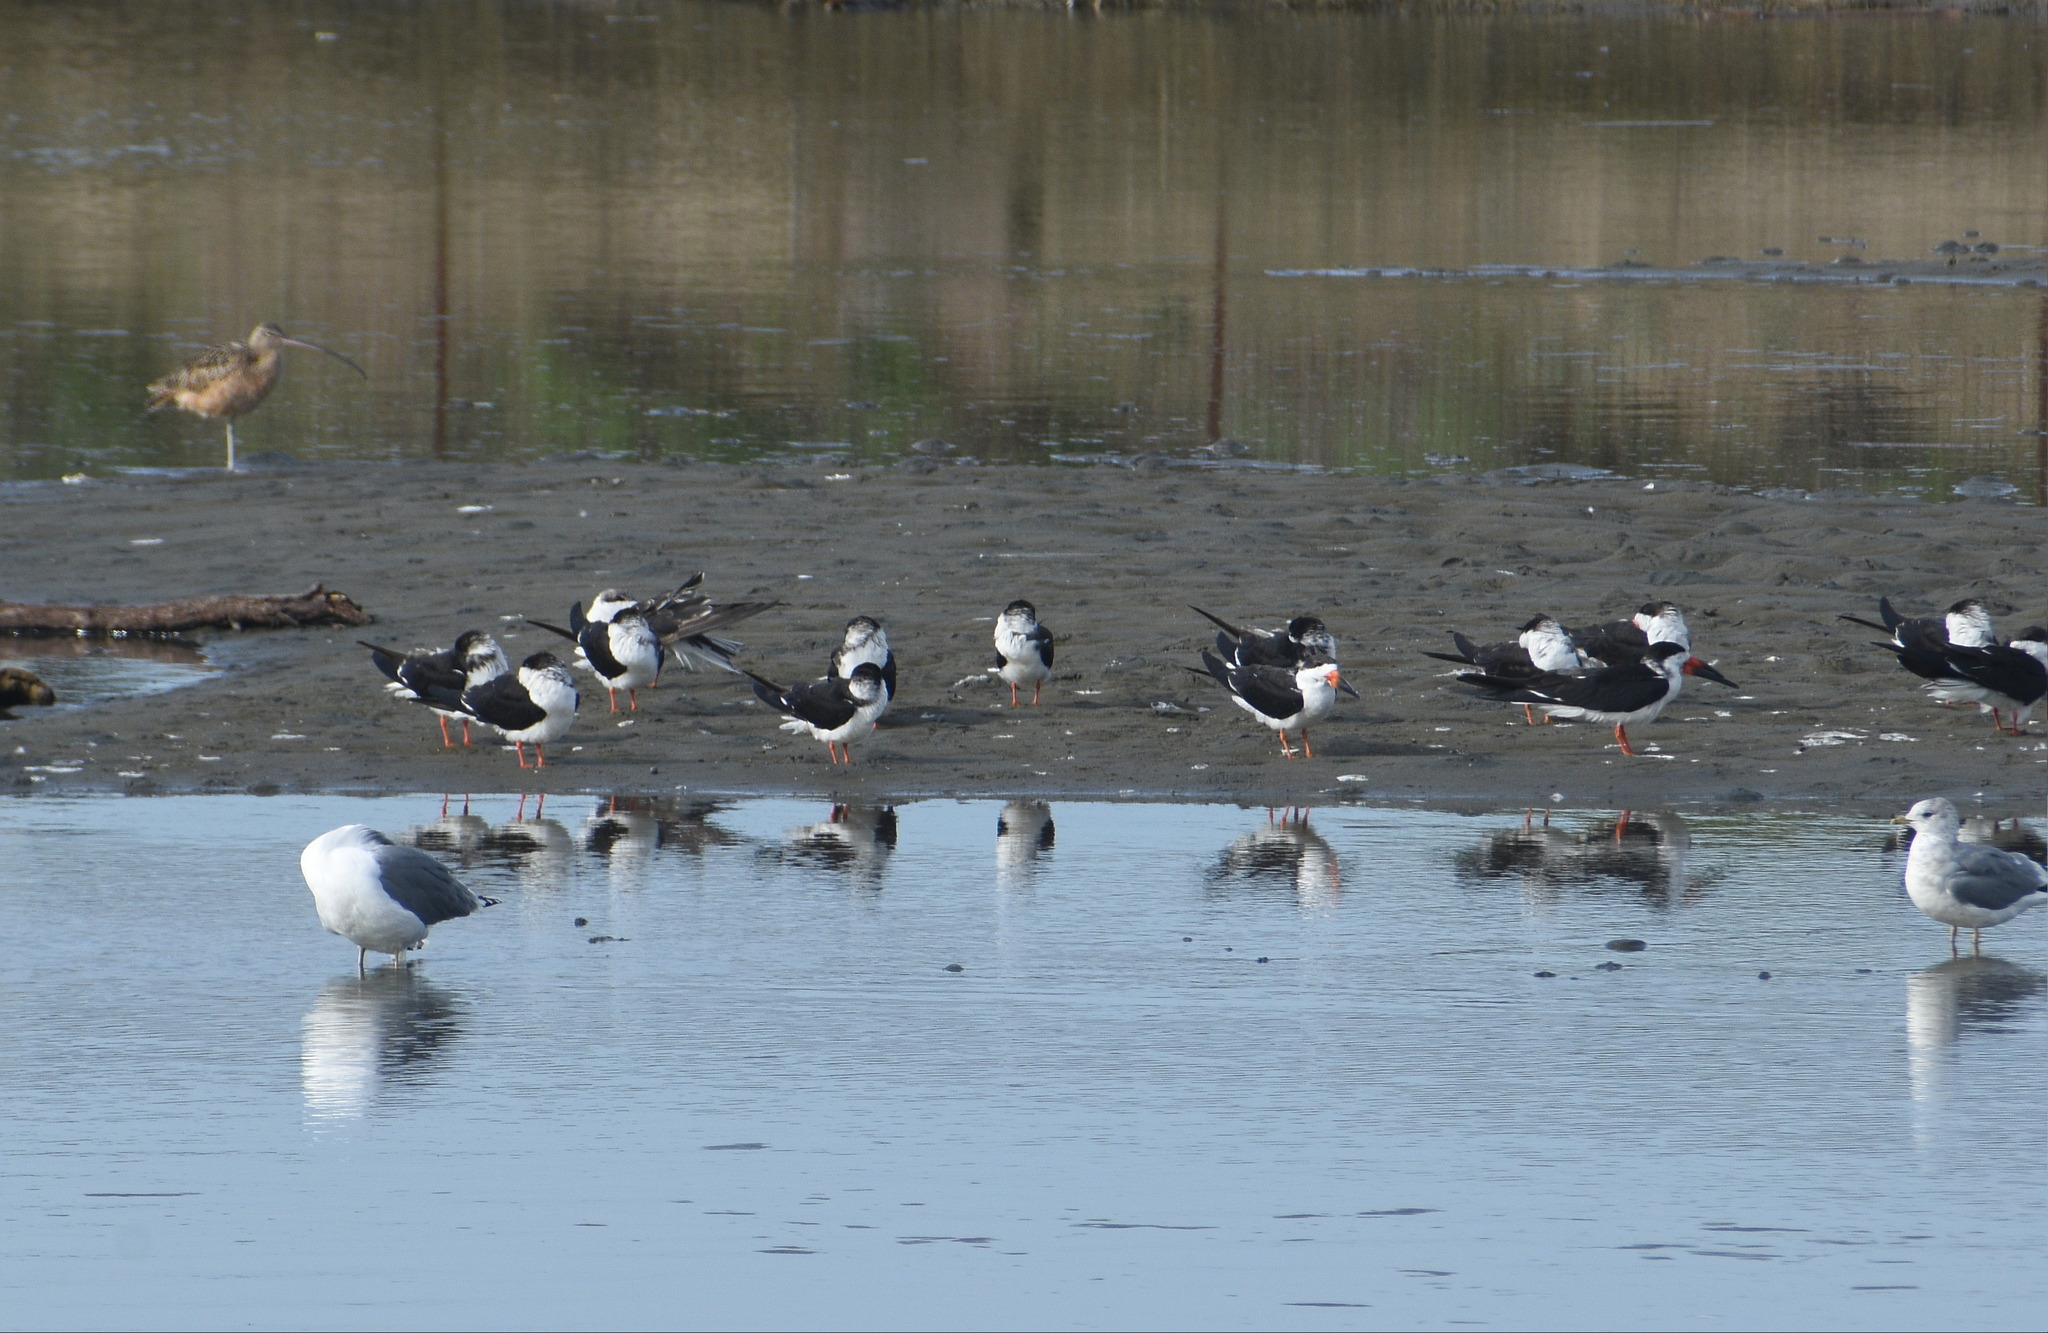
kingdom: Animalia
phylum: Chordata
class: Aves
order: Charadriiformes
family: Laridae
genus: Rynchops
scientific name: Rynchops niger
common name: Black skimmer
